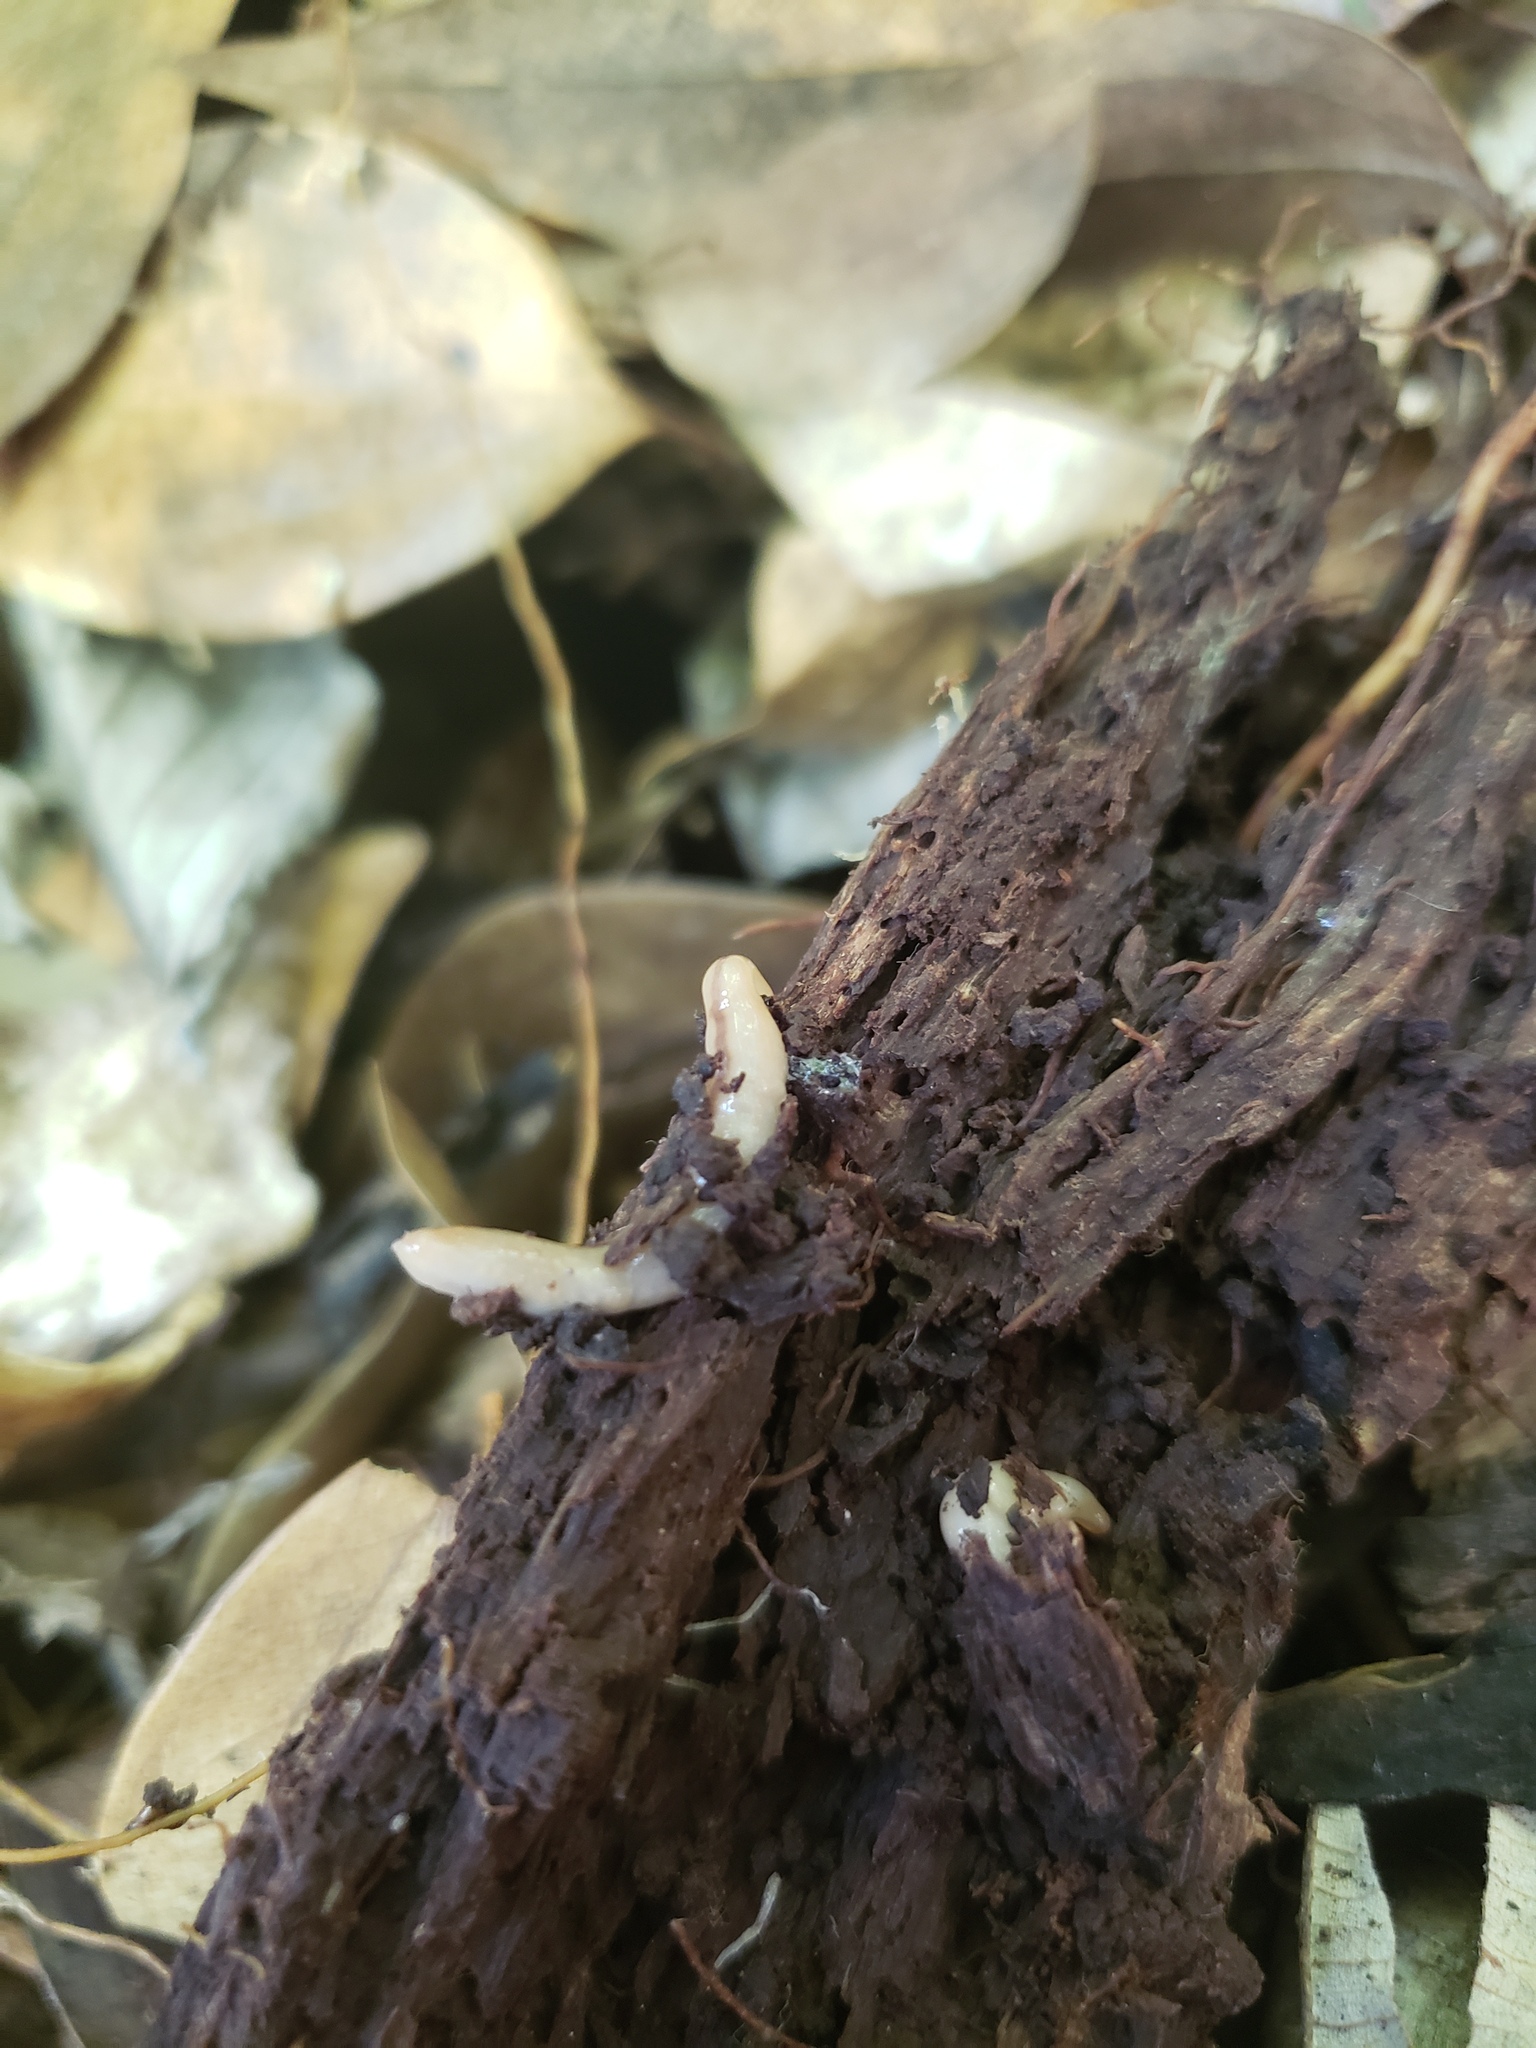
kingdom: Animalia
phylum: Nemertea
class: Hoplonemertea
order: Monostilifera
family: Prosorhochmidae
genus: Geonemertes
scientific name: Geonemertes pelaensis
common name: Land nemertean
